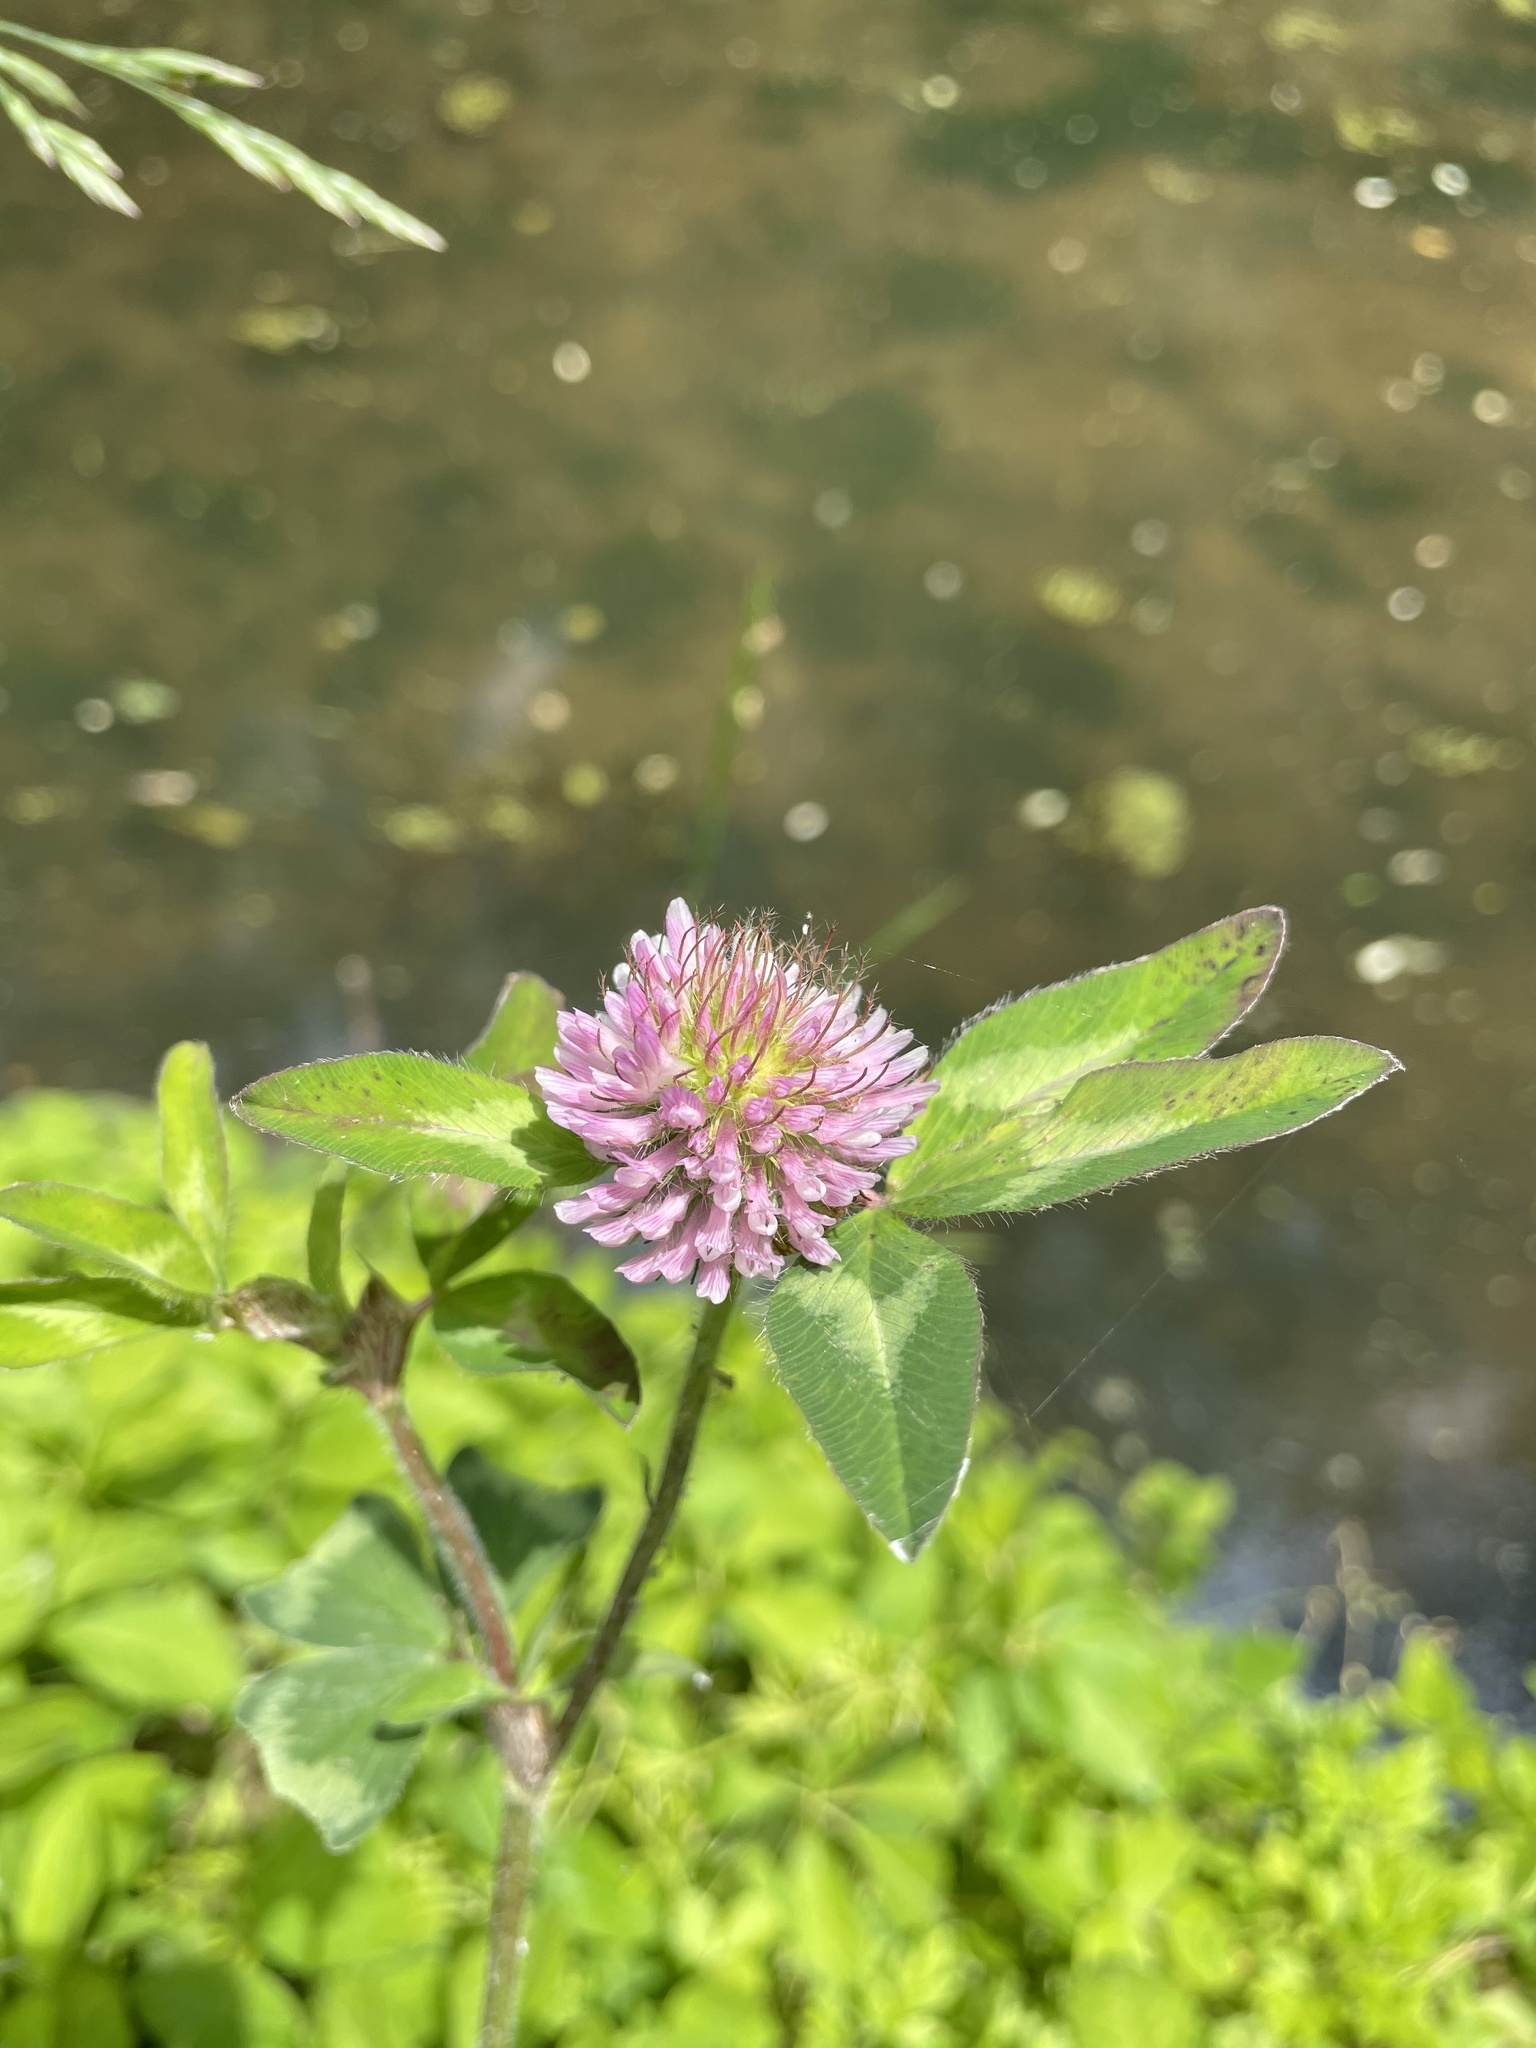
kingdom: Plantae
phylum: Tracheophyta
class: Magnoliopsida
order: Fabales
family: Fabaceae
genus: Trifolium
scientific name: Trifolium pratense
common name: Red clover
